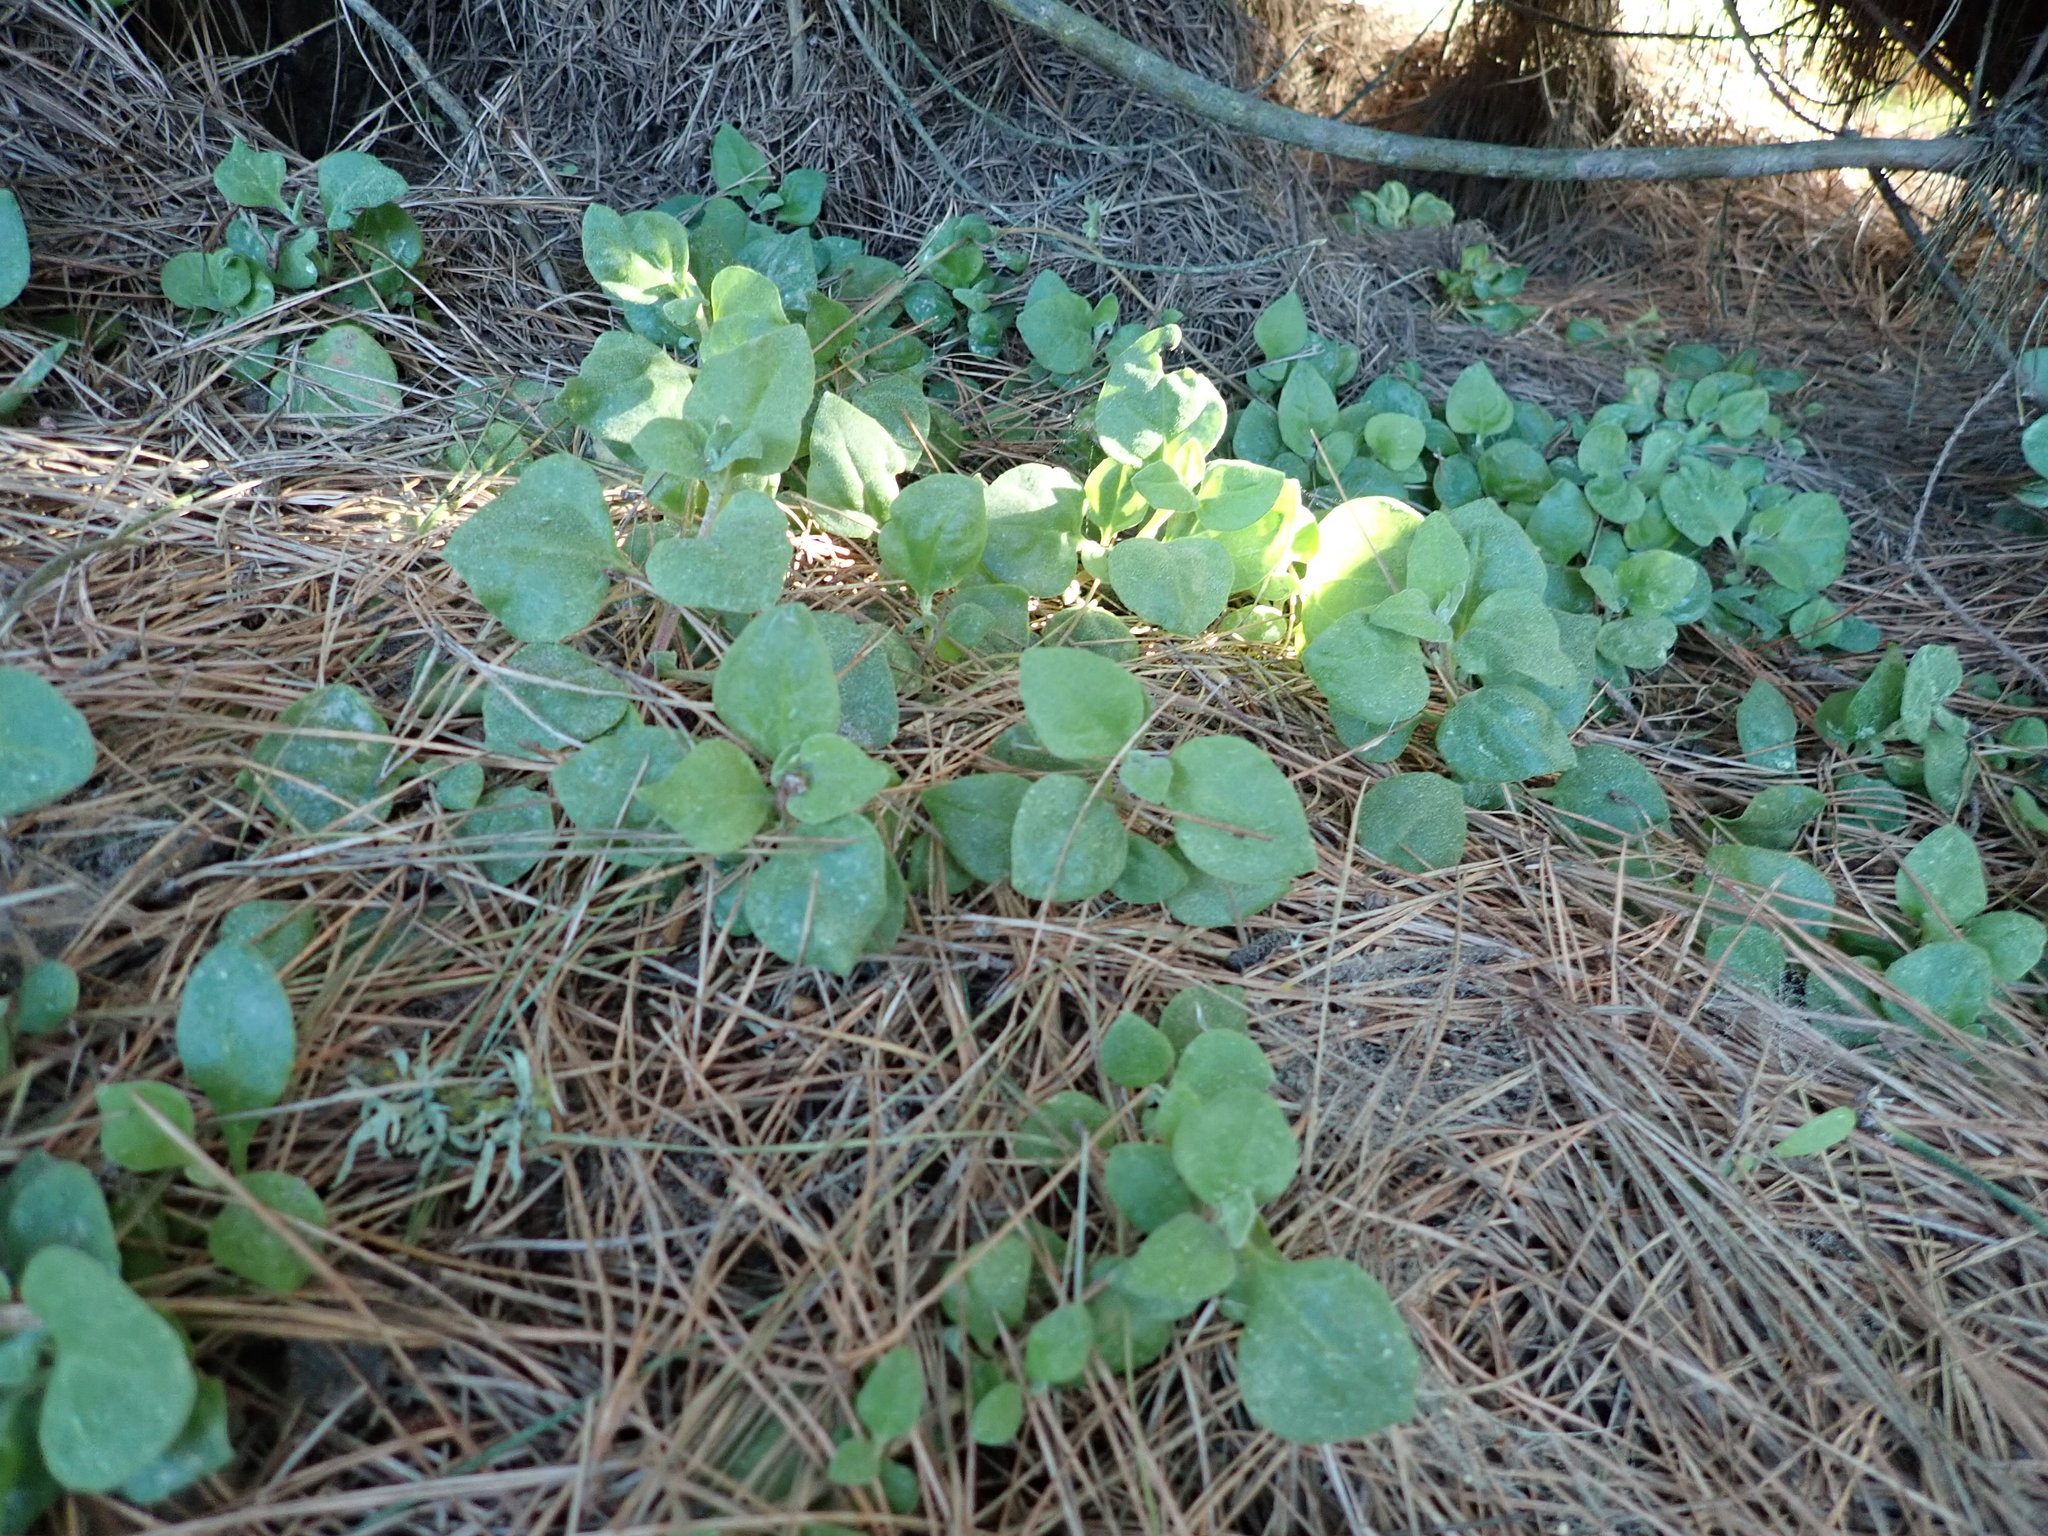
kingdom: Plantae
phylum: Tracheophyta
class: Magnoliopsida
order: Caryophyllales
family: Aizoaceae
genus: Tetragonia
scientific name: Tetragonia implexicoma
